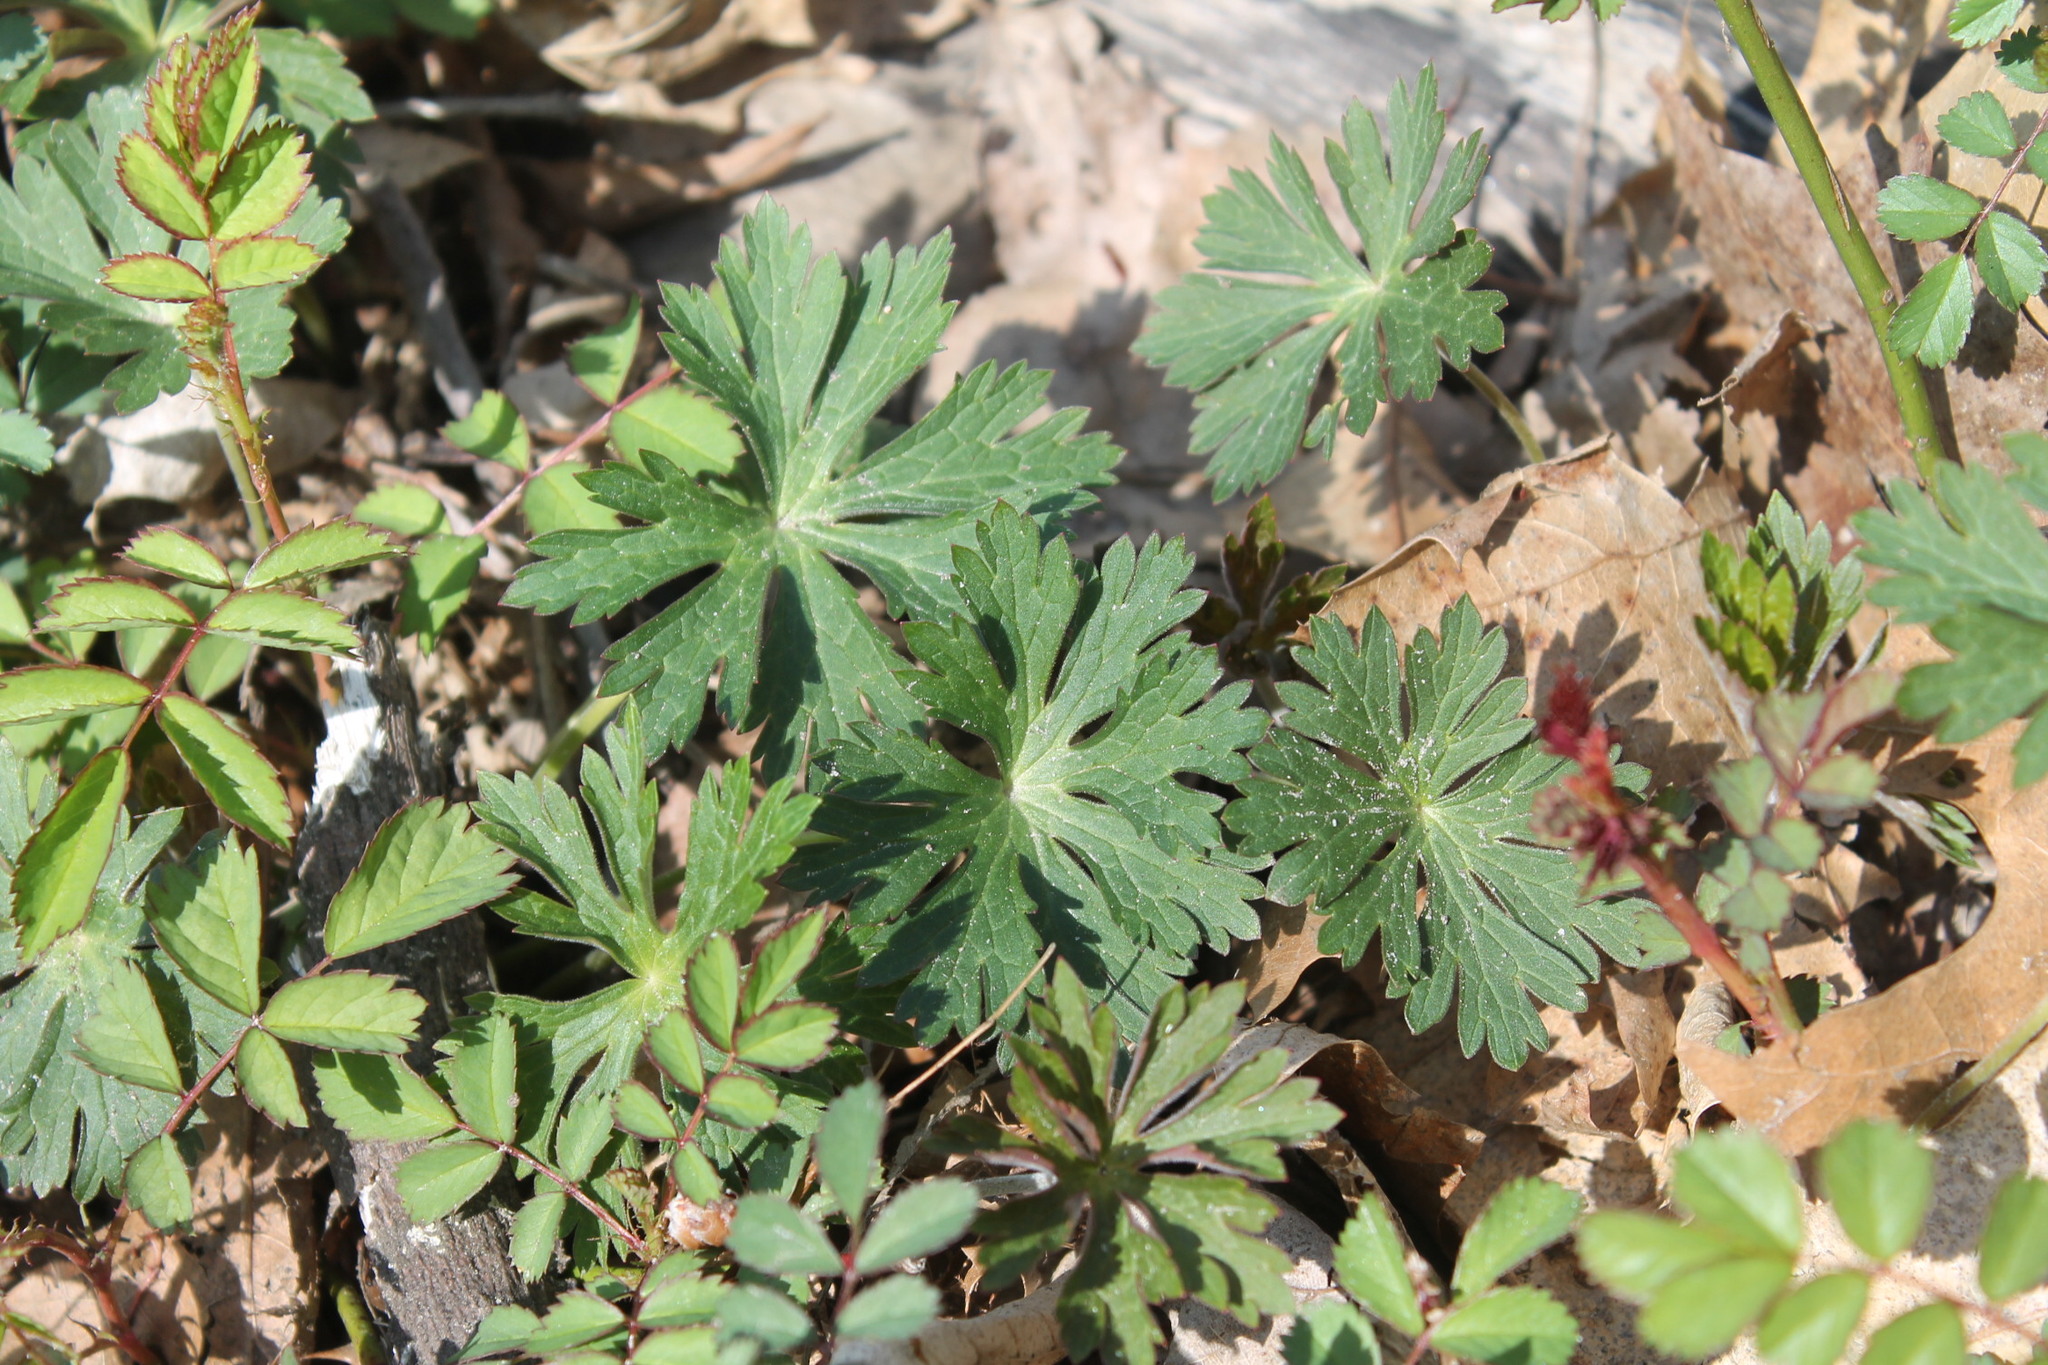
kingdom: Plantae
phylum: Tracheophyta
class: Magnoliopsida
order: Geraniales
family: Geraniaceae
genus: Geranium
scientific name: Geranium maculatum
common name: Spotted geranium
